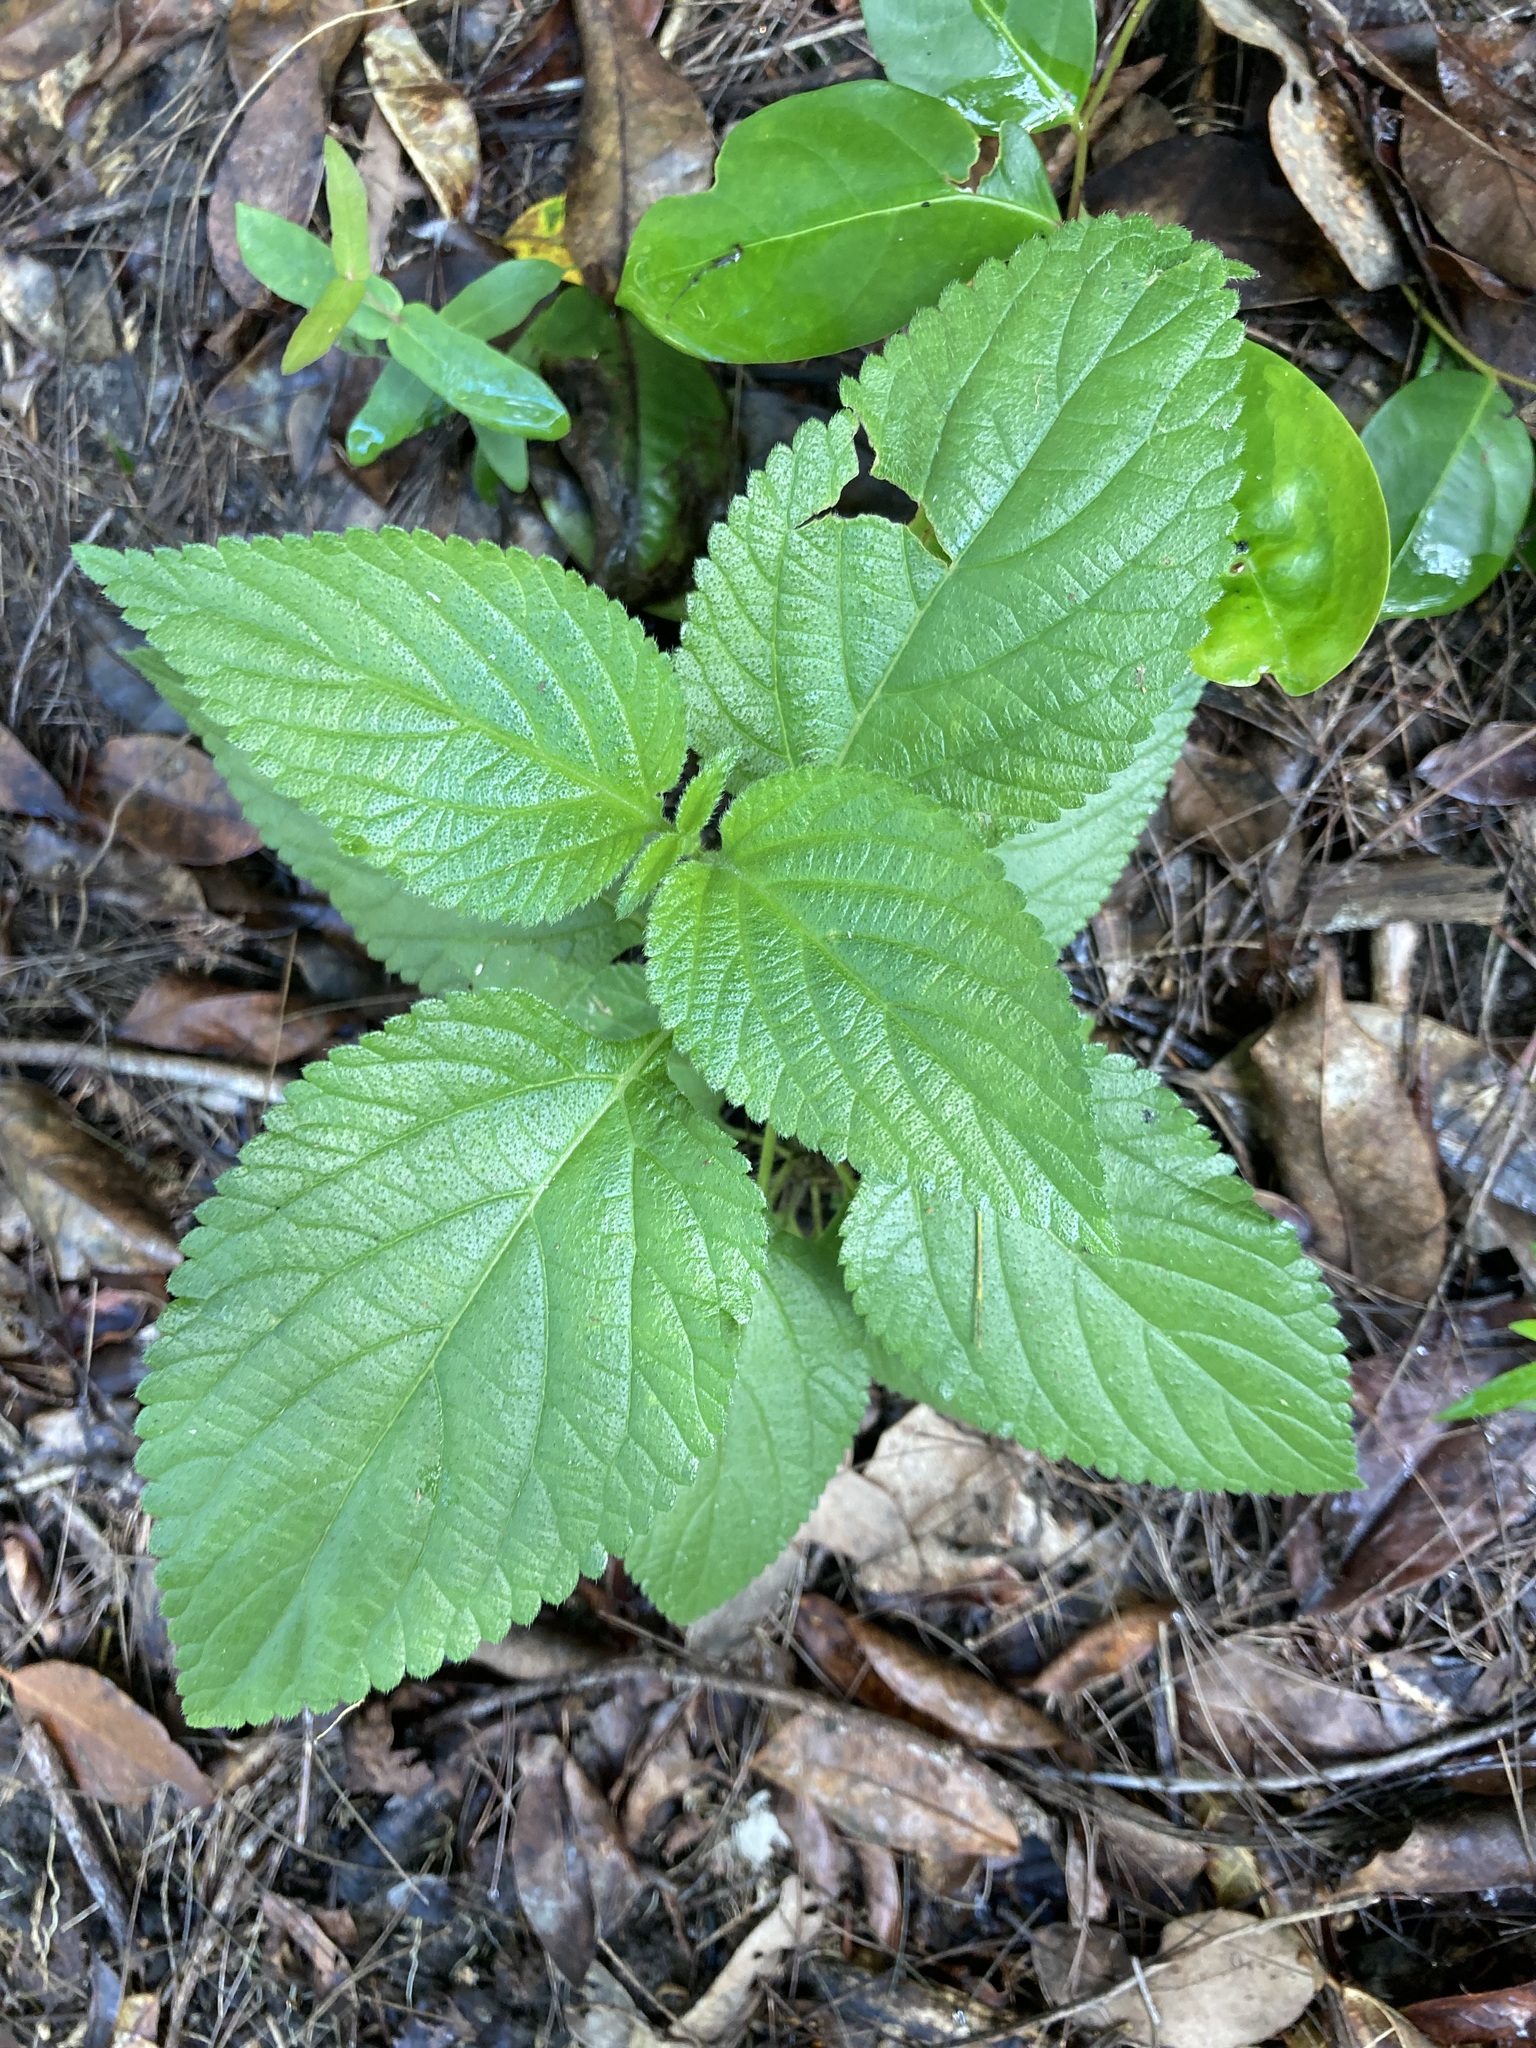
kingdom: Plantae
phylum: Tracheophyta
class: Magnoliopsida
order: Lamiales
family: Verbenaceae
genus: Lantana
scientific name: Lantana camara
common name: Lantana
